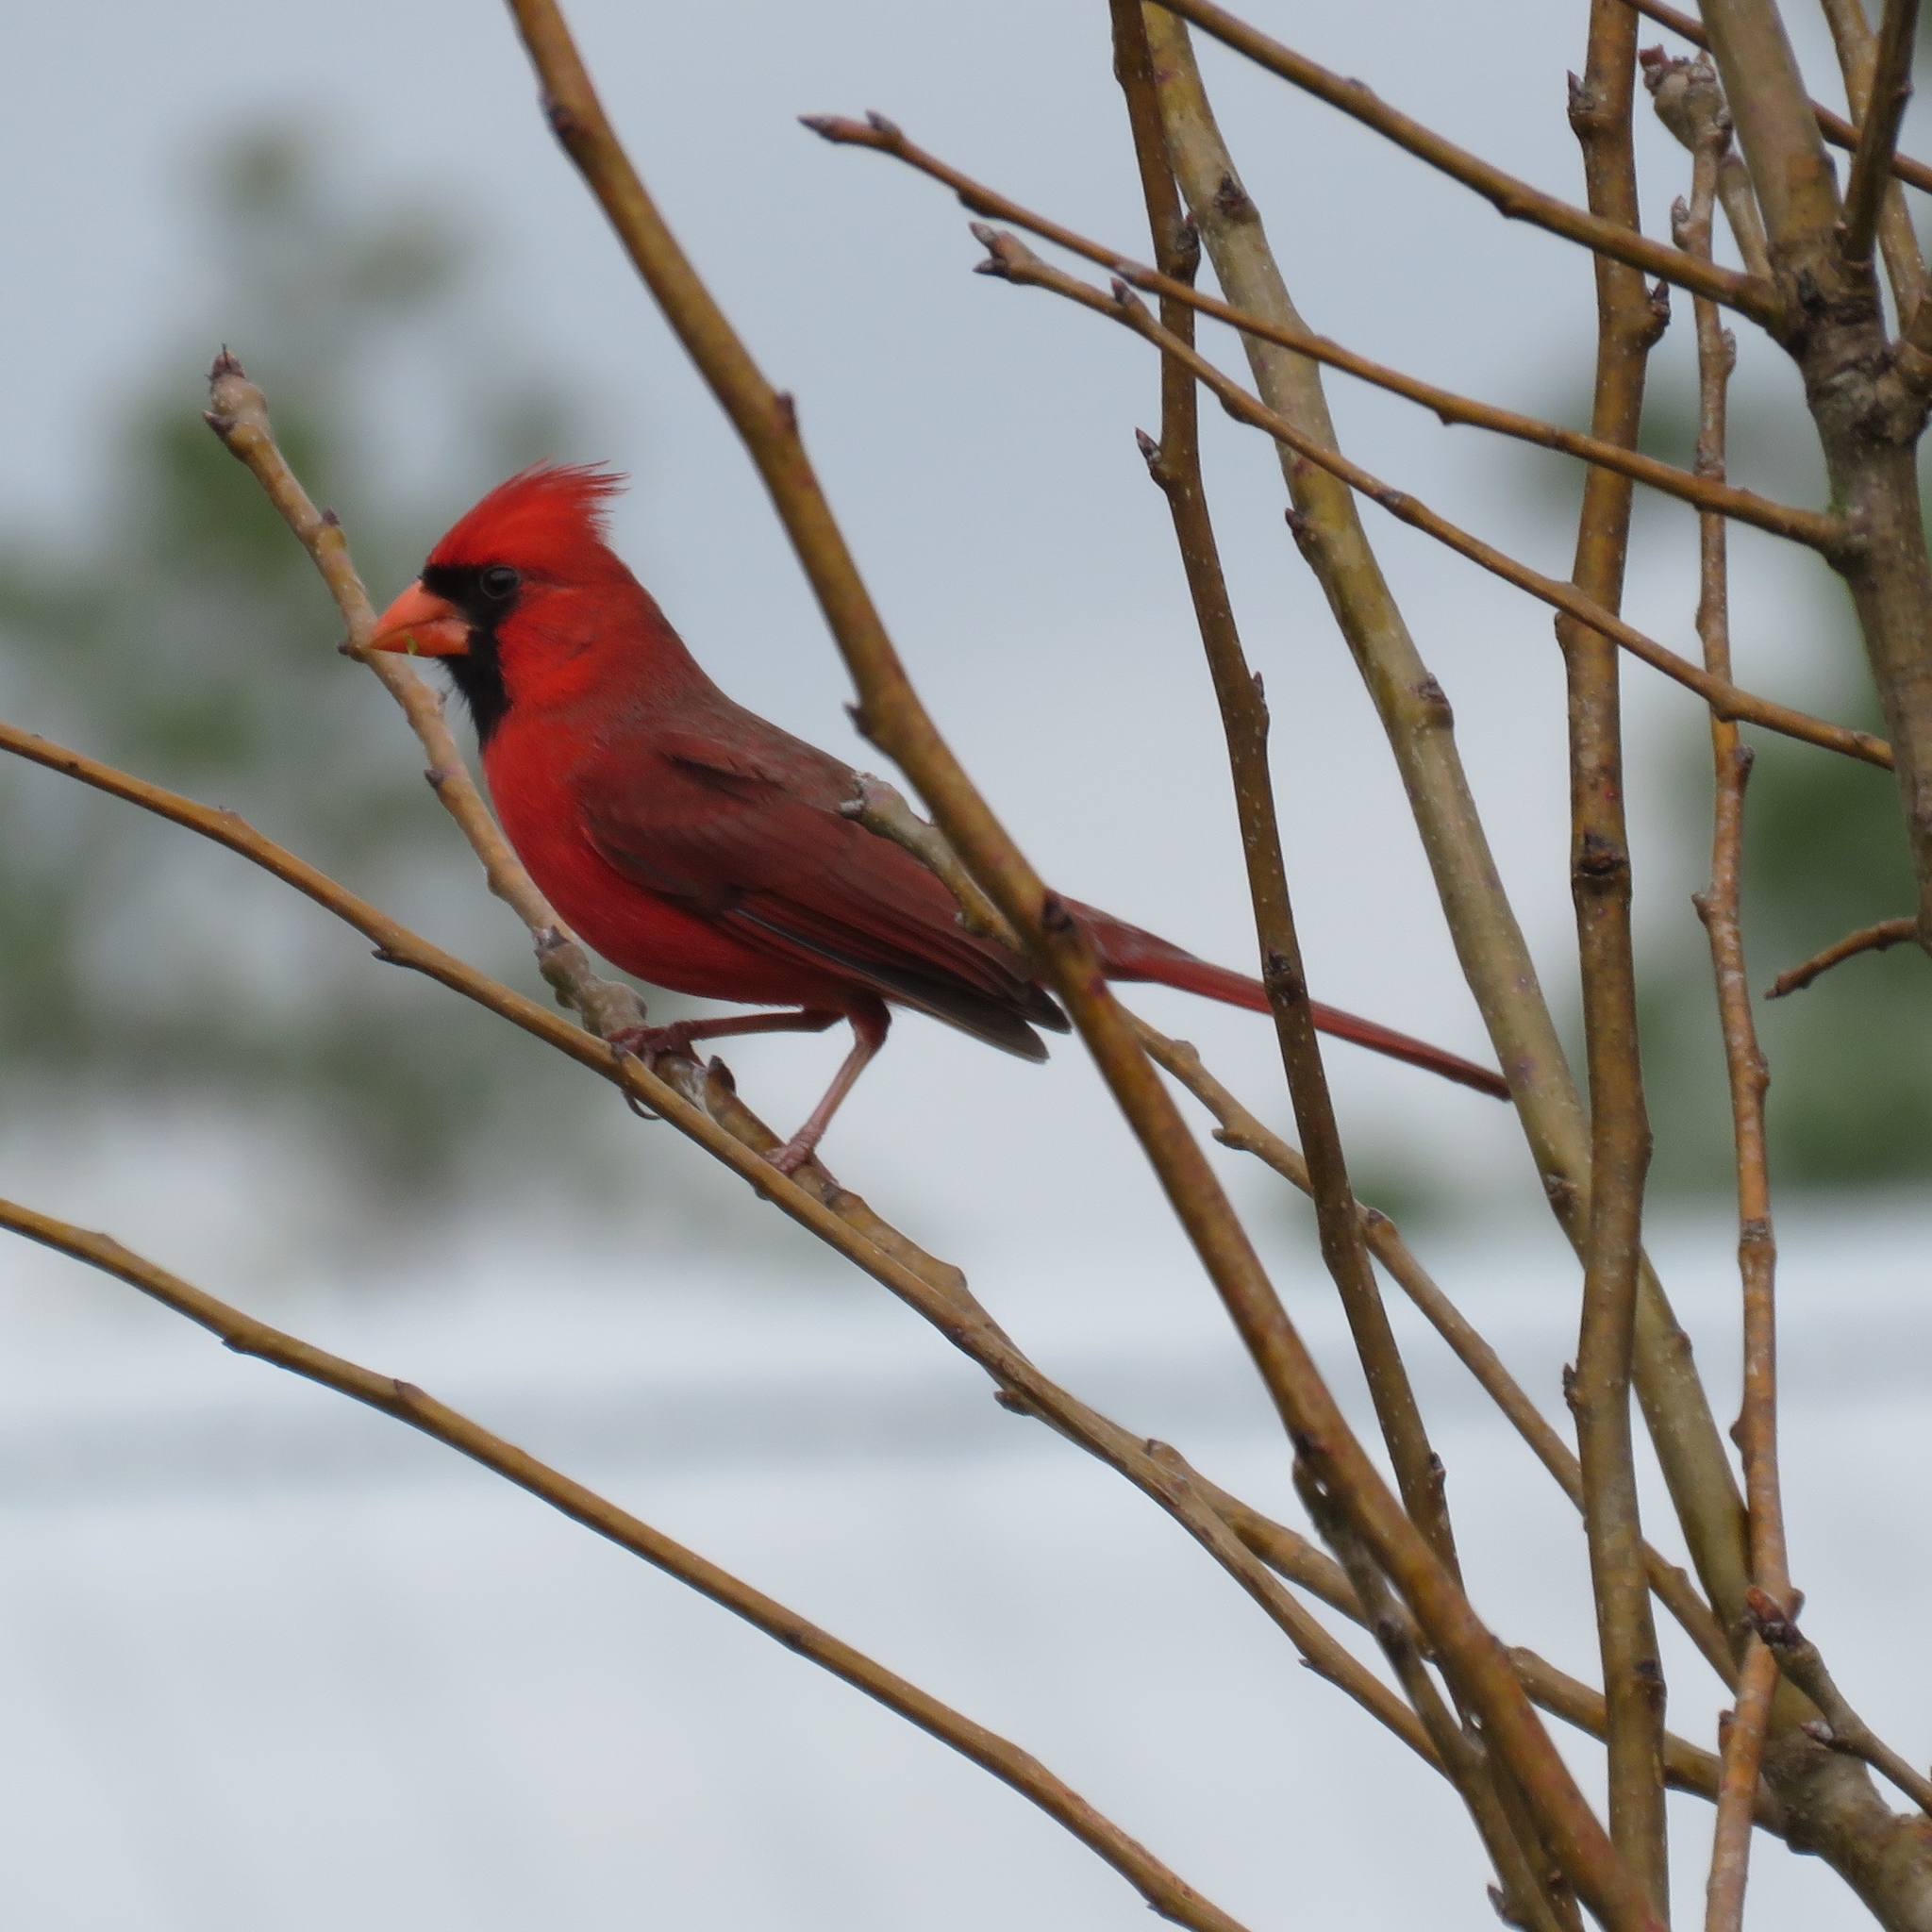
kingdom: Animalia
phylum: Chordata
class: Aves
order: Passeriformes
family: Cardinalidae
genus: Cardinalis
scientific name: Cardinalis cardinalis
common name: Northern cardinal
